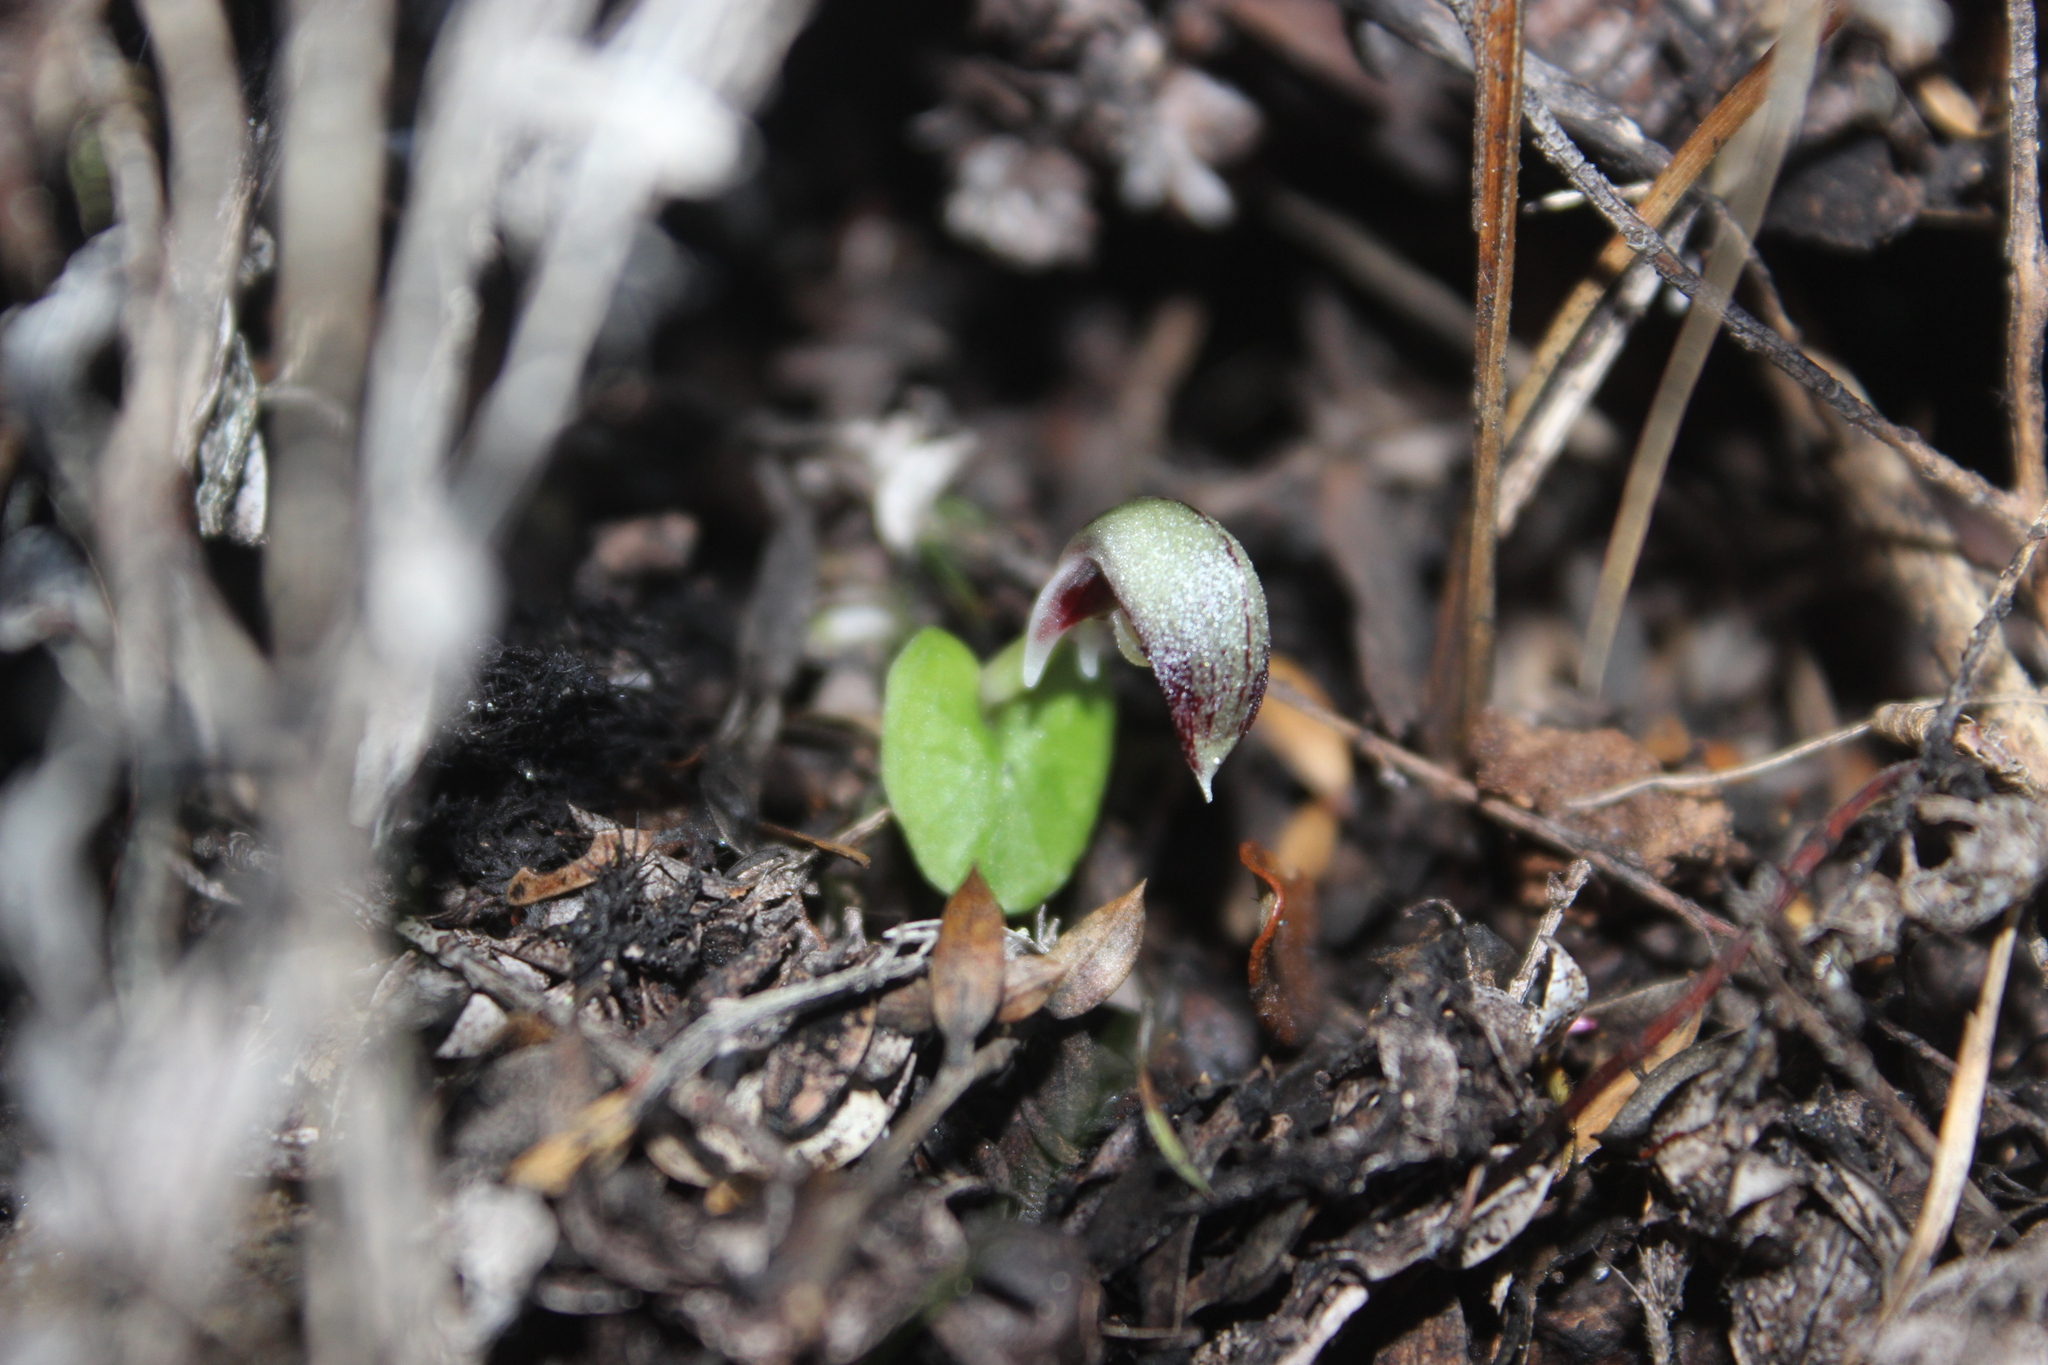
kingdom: Plantae
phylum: Tracheophyta
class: Liliopsida
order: Asparagales
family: Orchidaceae
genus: Corybas
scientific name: Corybas cheesemanii
